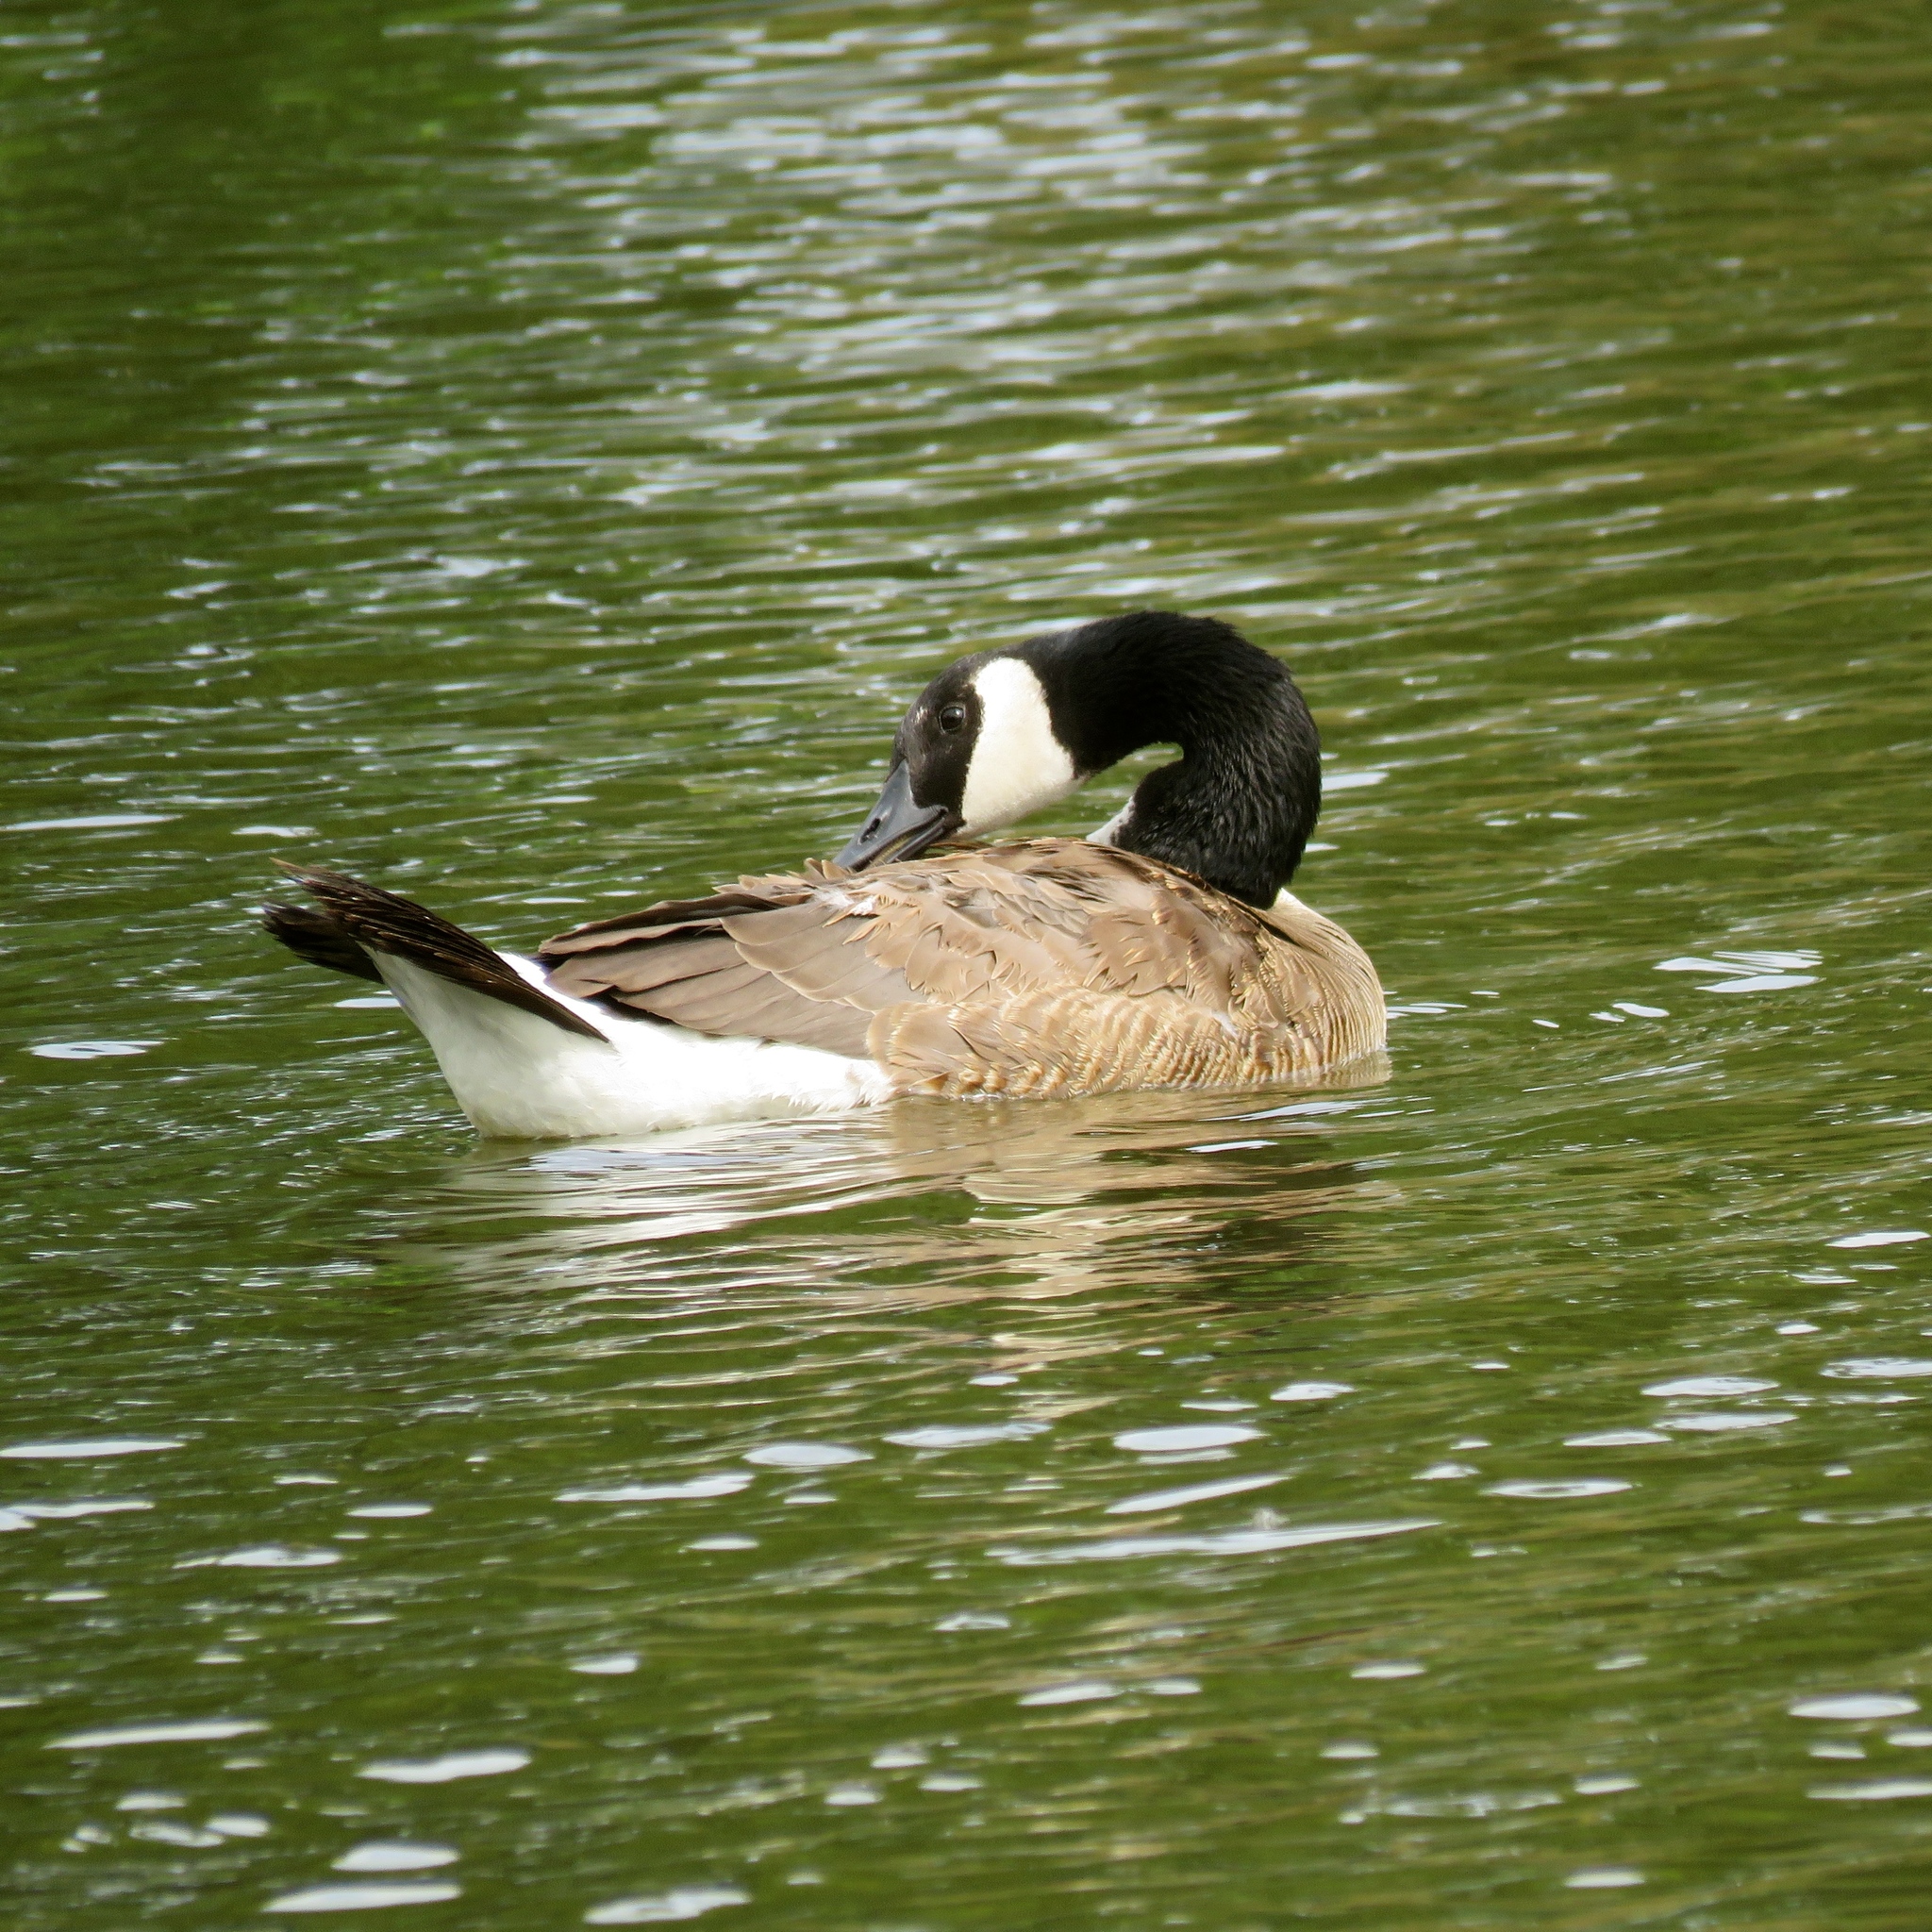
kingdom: Animalia
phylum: Chordata
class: Aves
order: Anseriformes
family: Anatidae
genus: Branta
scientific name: Branta canadensis
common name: Canada goose
